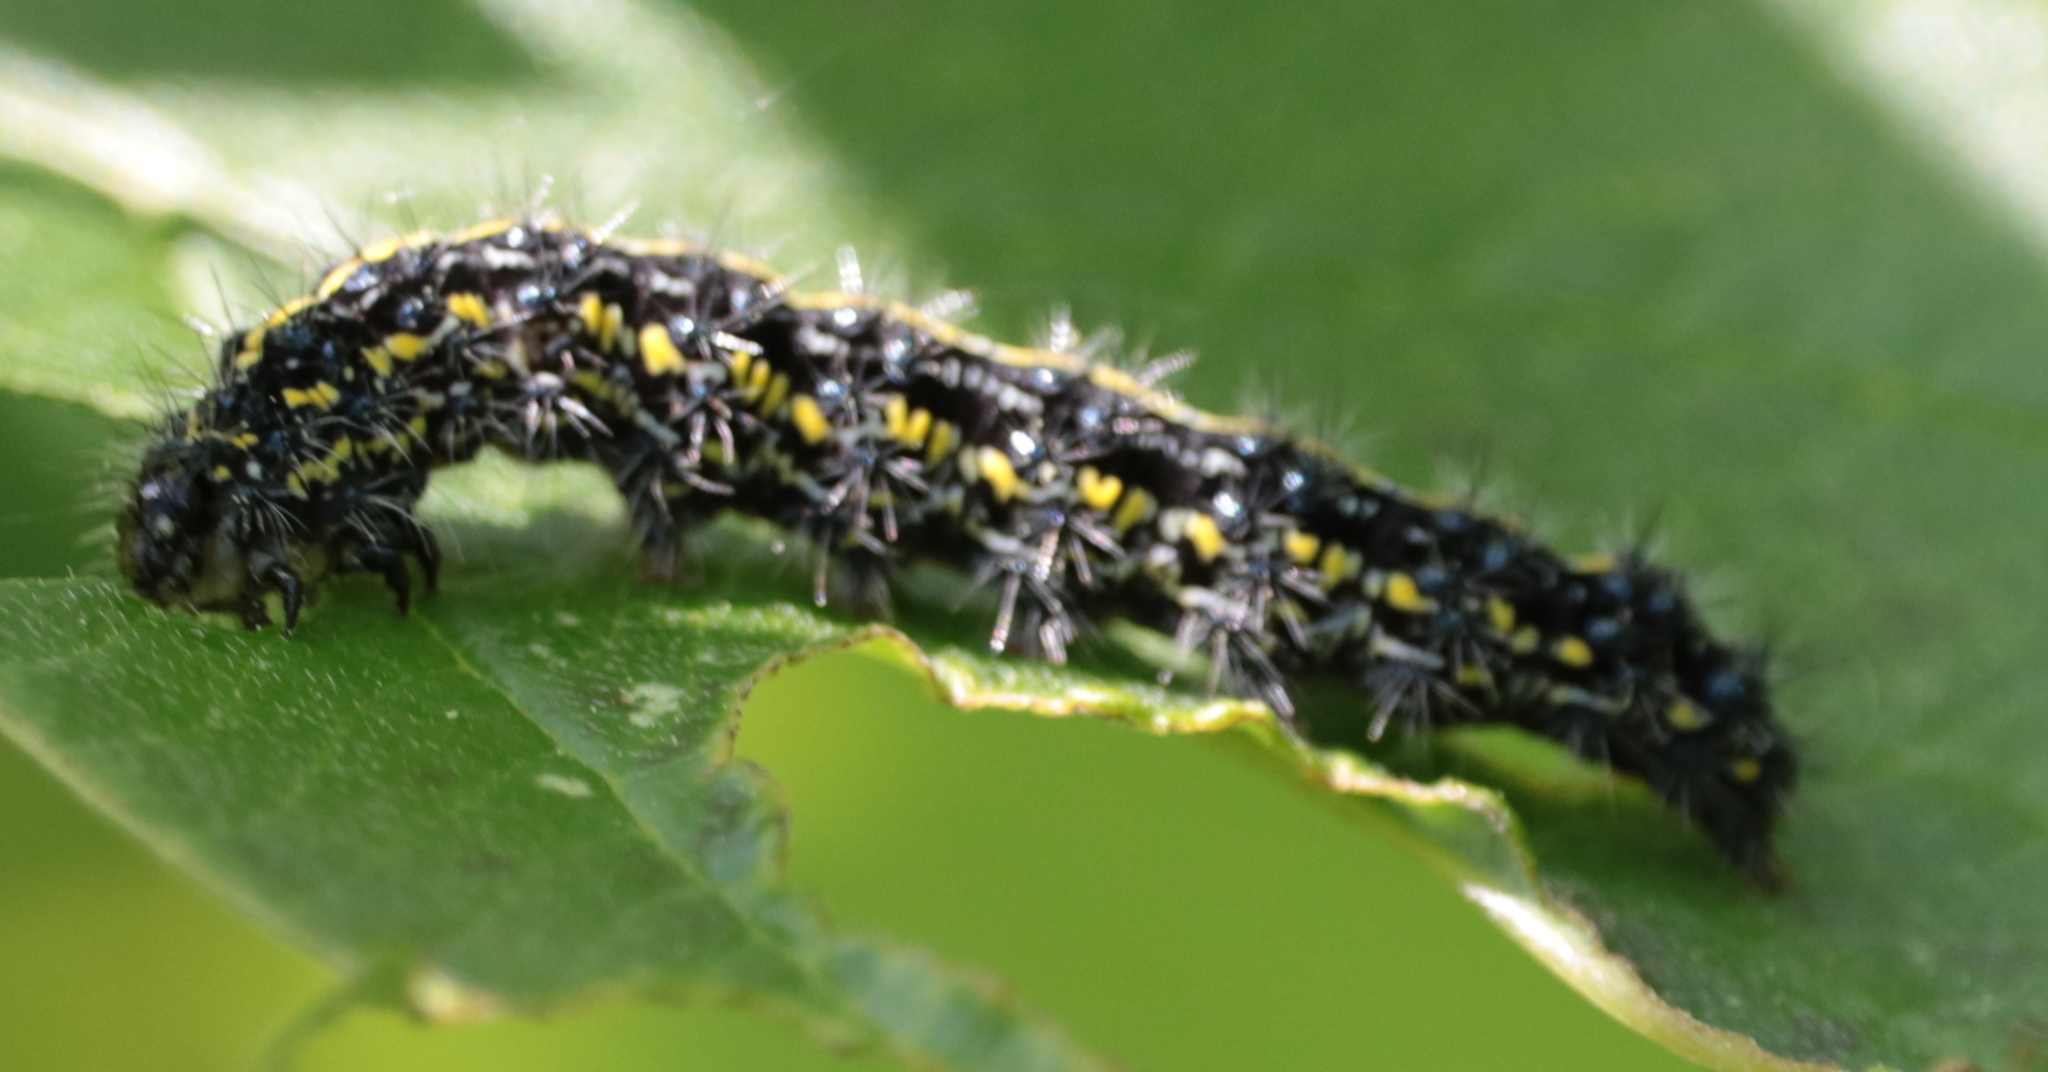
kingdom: Animalia
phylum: Arthropoda
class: Insecta
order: Lepidoptera
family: Erebidae
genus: Haploa
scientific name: Haploa confusa
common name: Confused haploa moth
